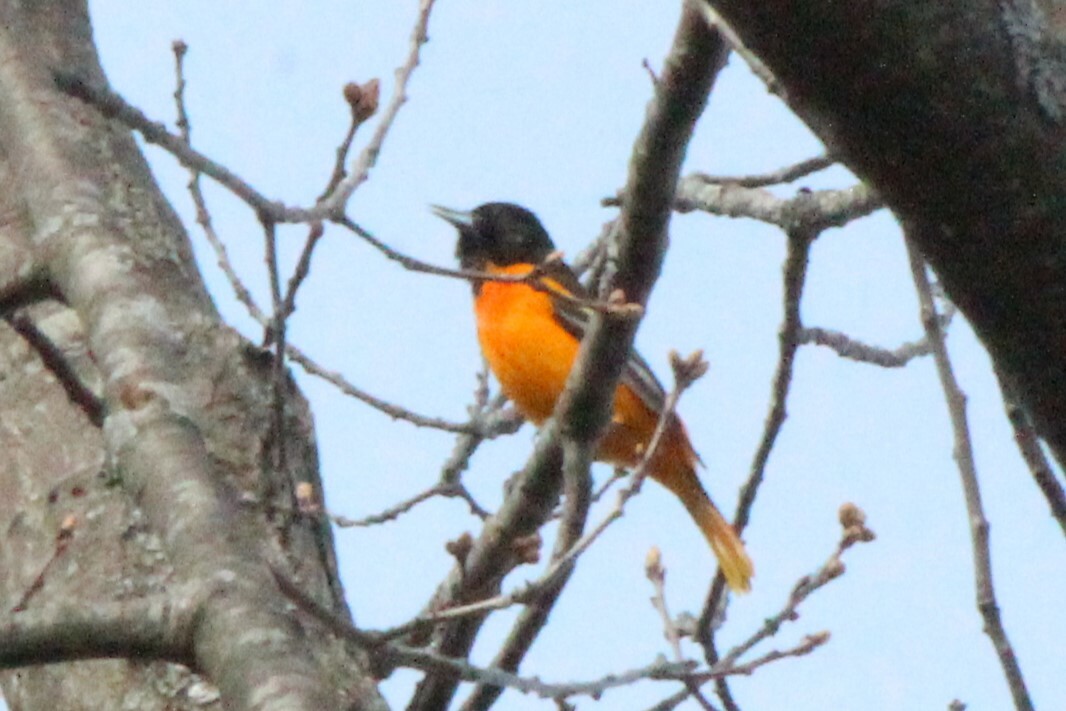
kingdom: Animalia
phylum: Chordata
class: Aves
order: Passeriformes
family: Icteridae
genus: Icterus
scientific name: Icterus galbula
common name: Baltimore oriole
